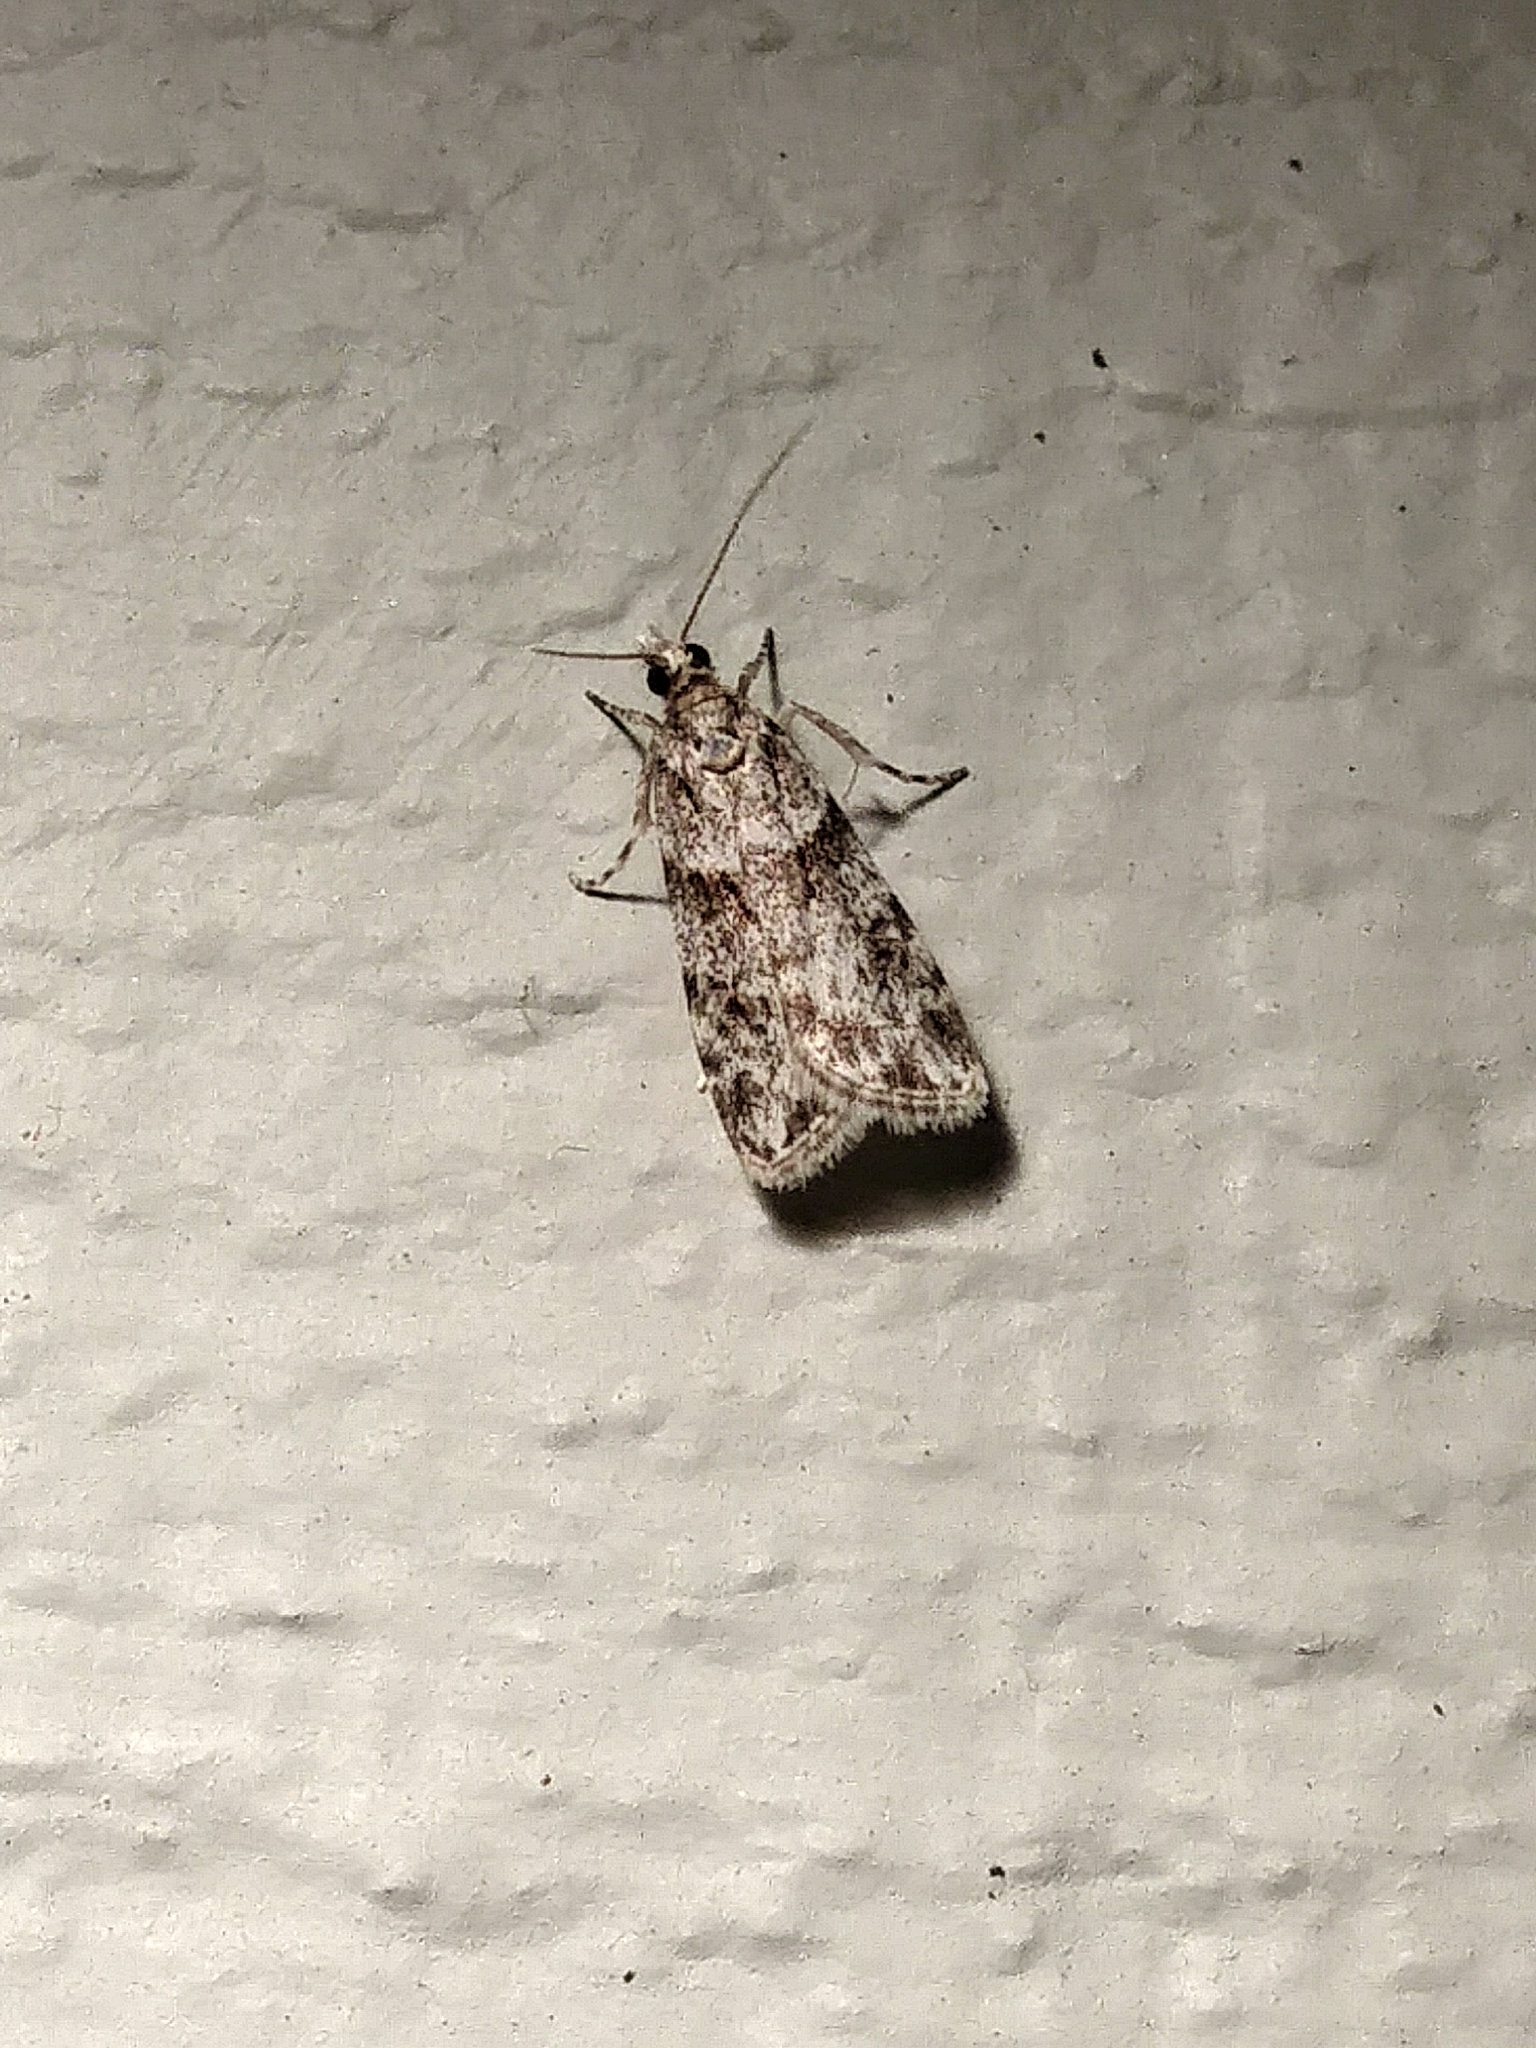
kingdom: Animalia
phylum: Arthropoda
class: Insecta
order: Lepidoptera
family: Crambidae
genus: Scoparia
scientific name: Scoparia biplagialis
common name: Double-striped scoparia moth
